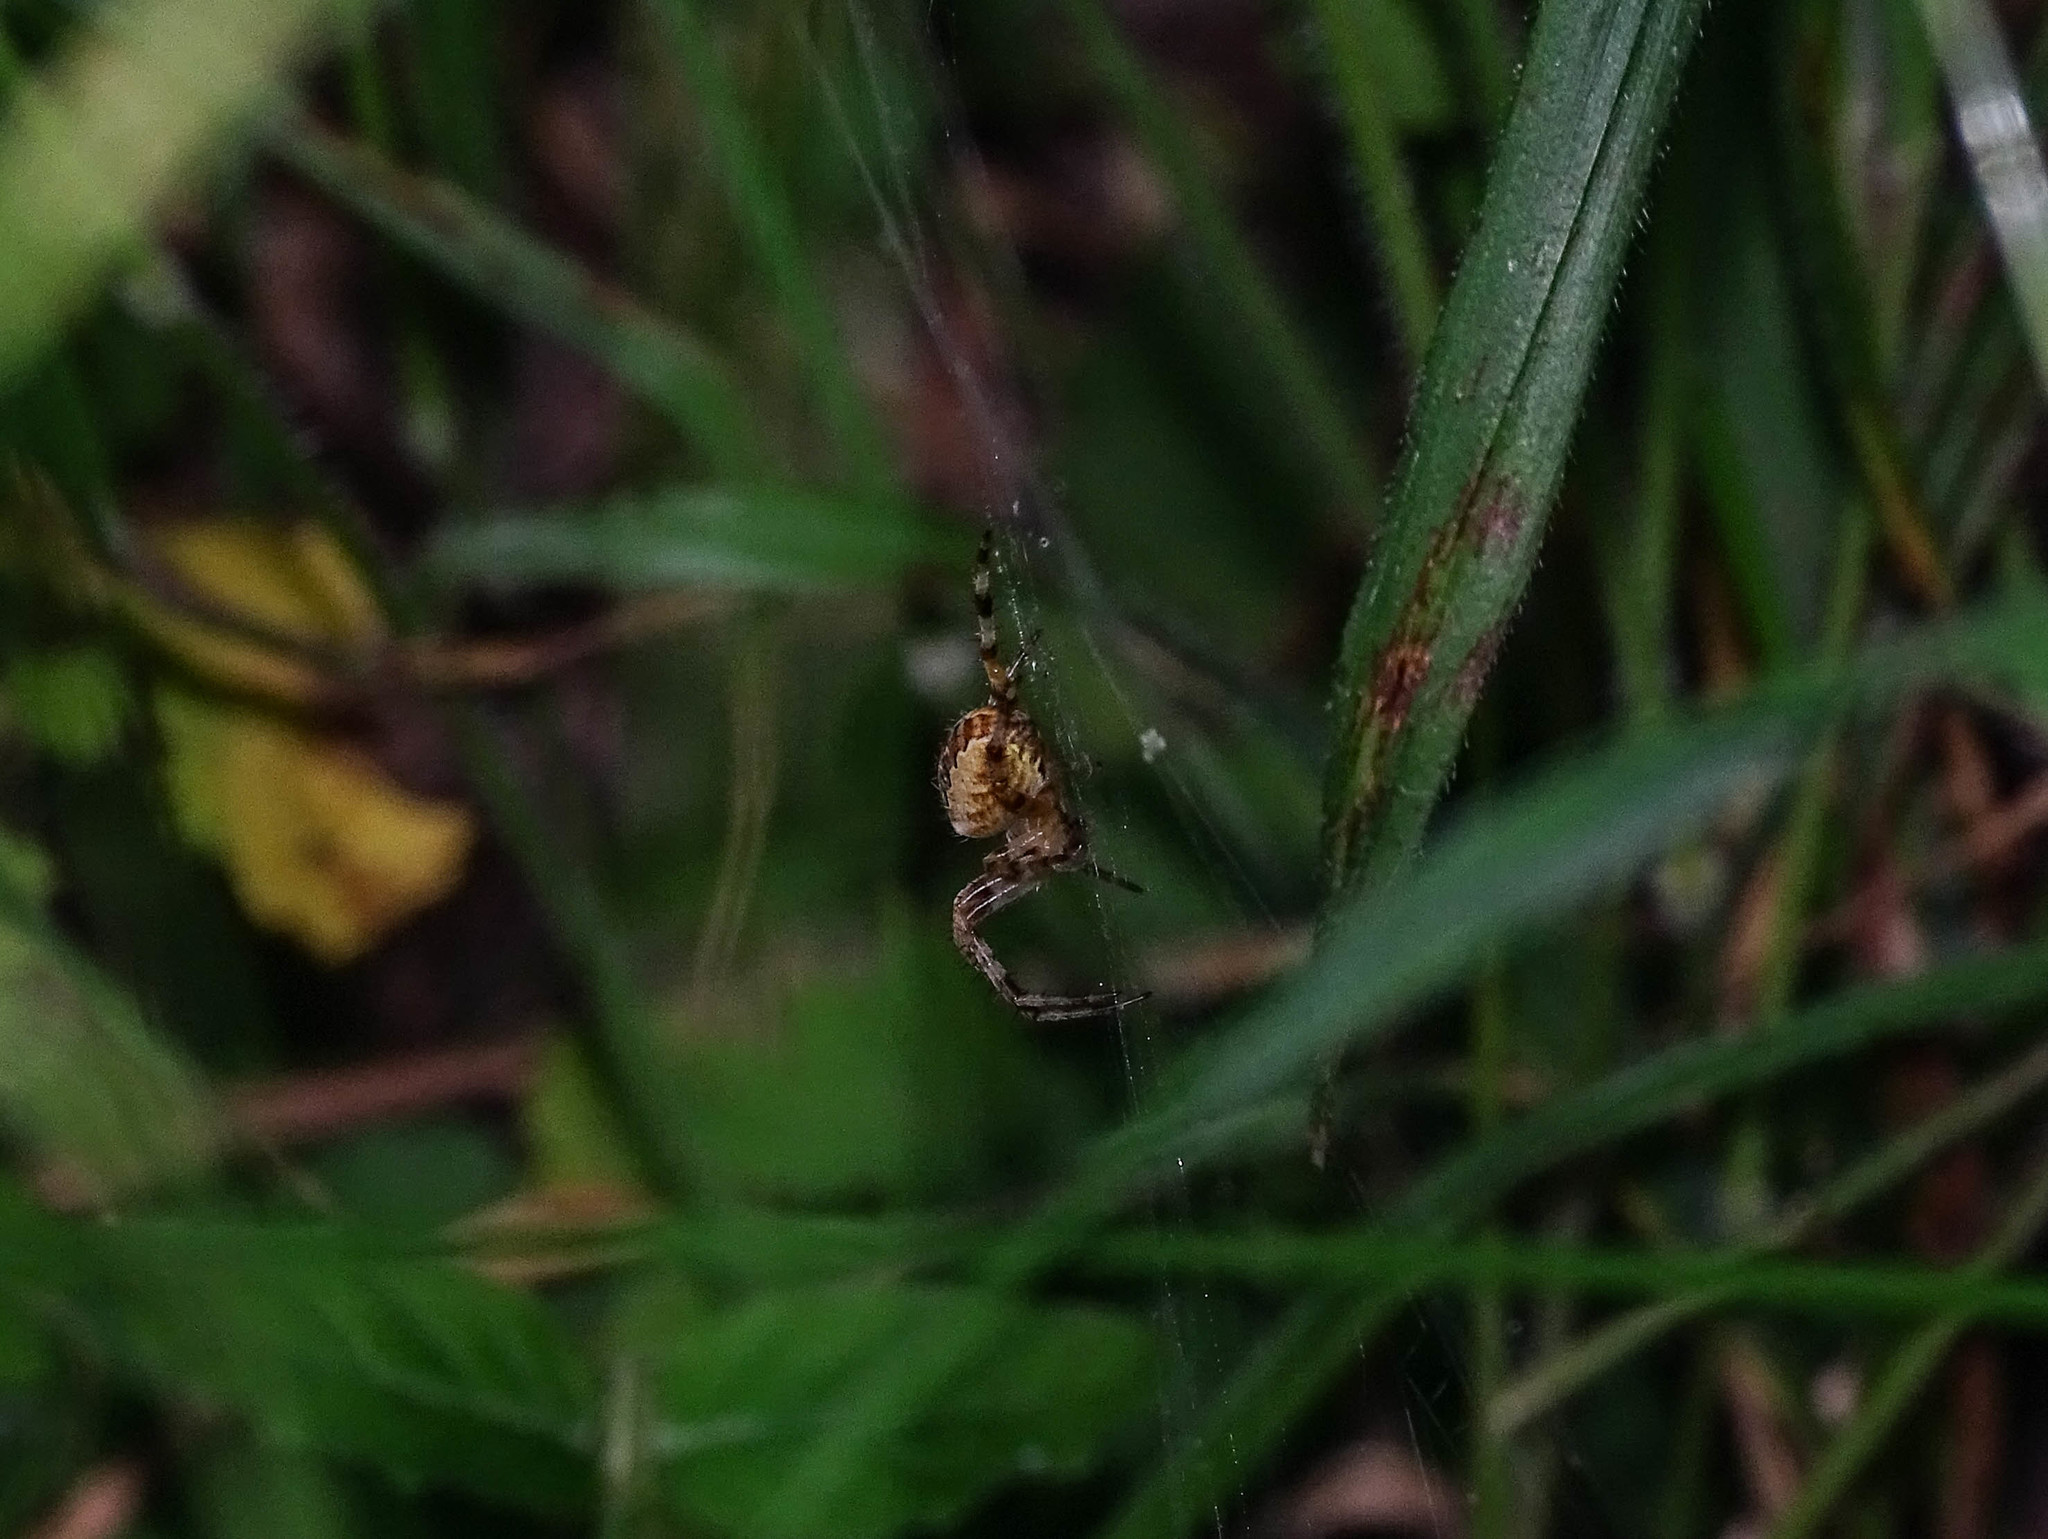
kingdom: Animalia
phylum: Arthropoda
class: Arachnida
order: Araneae
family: Araneidae
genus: Araneus
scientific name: Araneus diadematus
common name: Cross orbweaver
